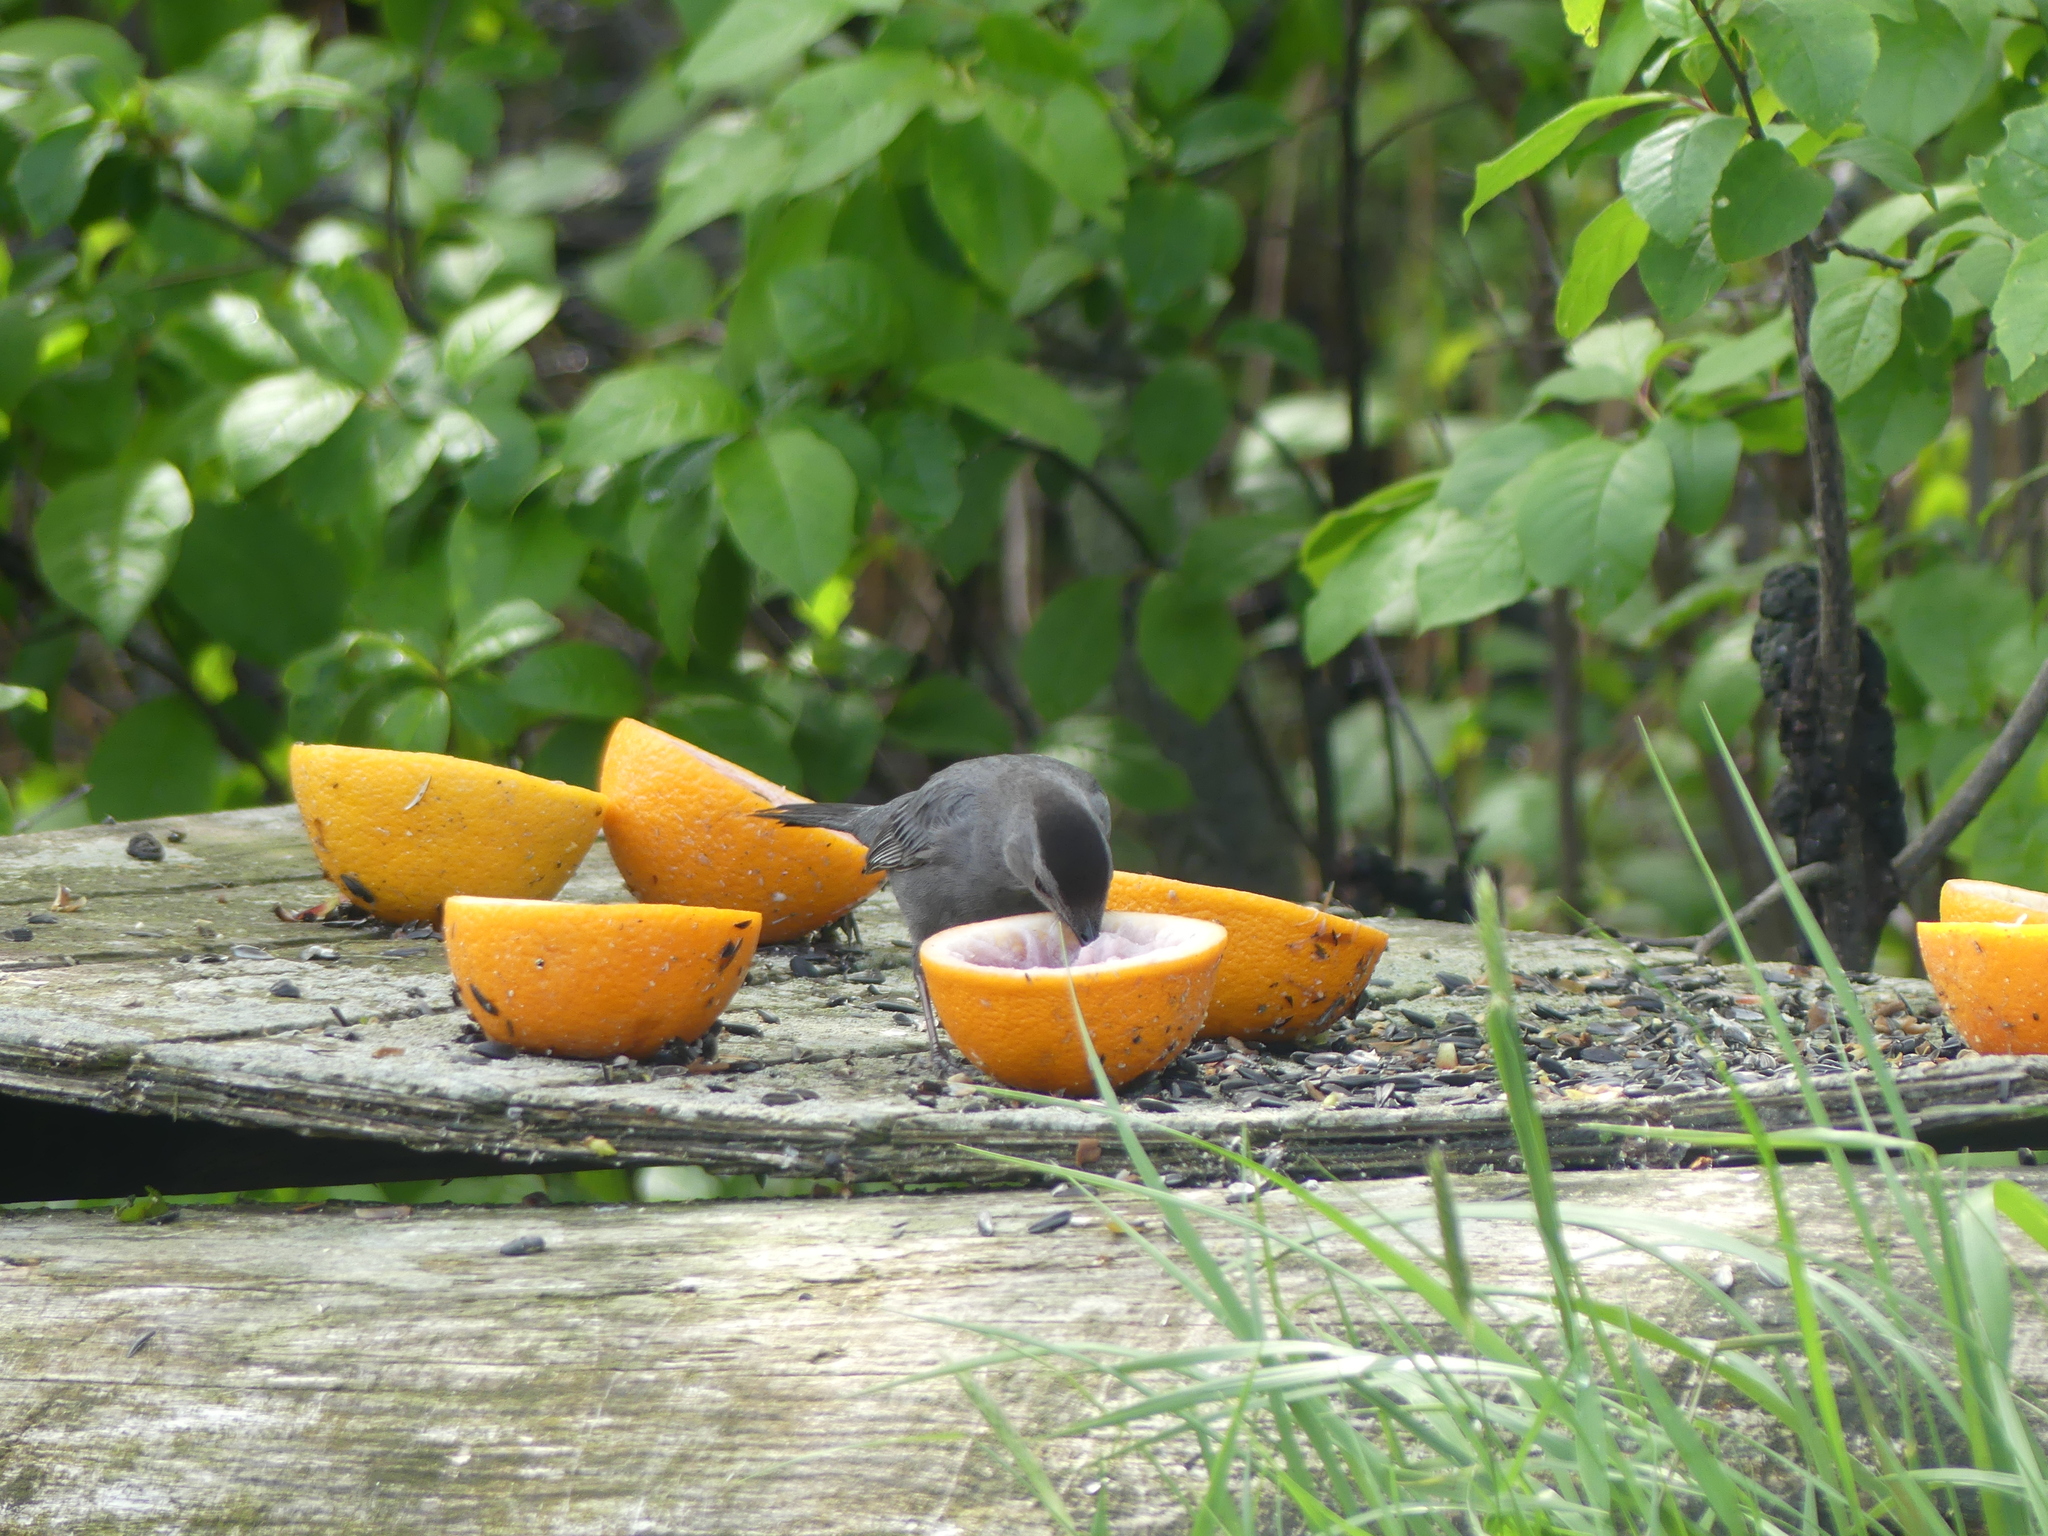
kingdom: Animalia
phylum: Chordata
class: Aves
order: Passeriformes
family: Mimidae
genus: Dumetella
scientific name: Dumetella carolinensis
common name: Gray catbird
